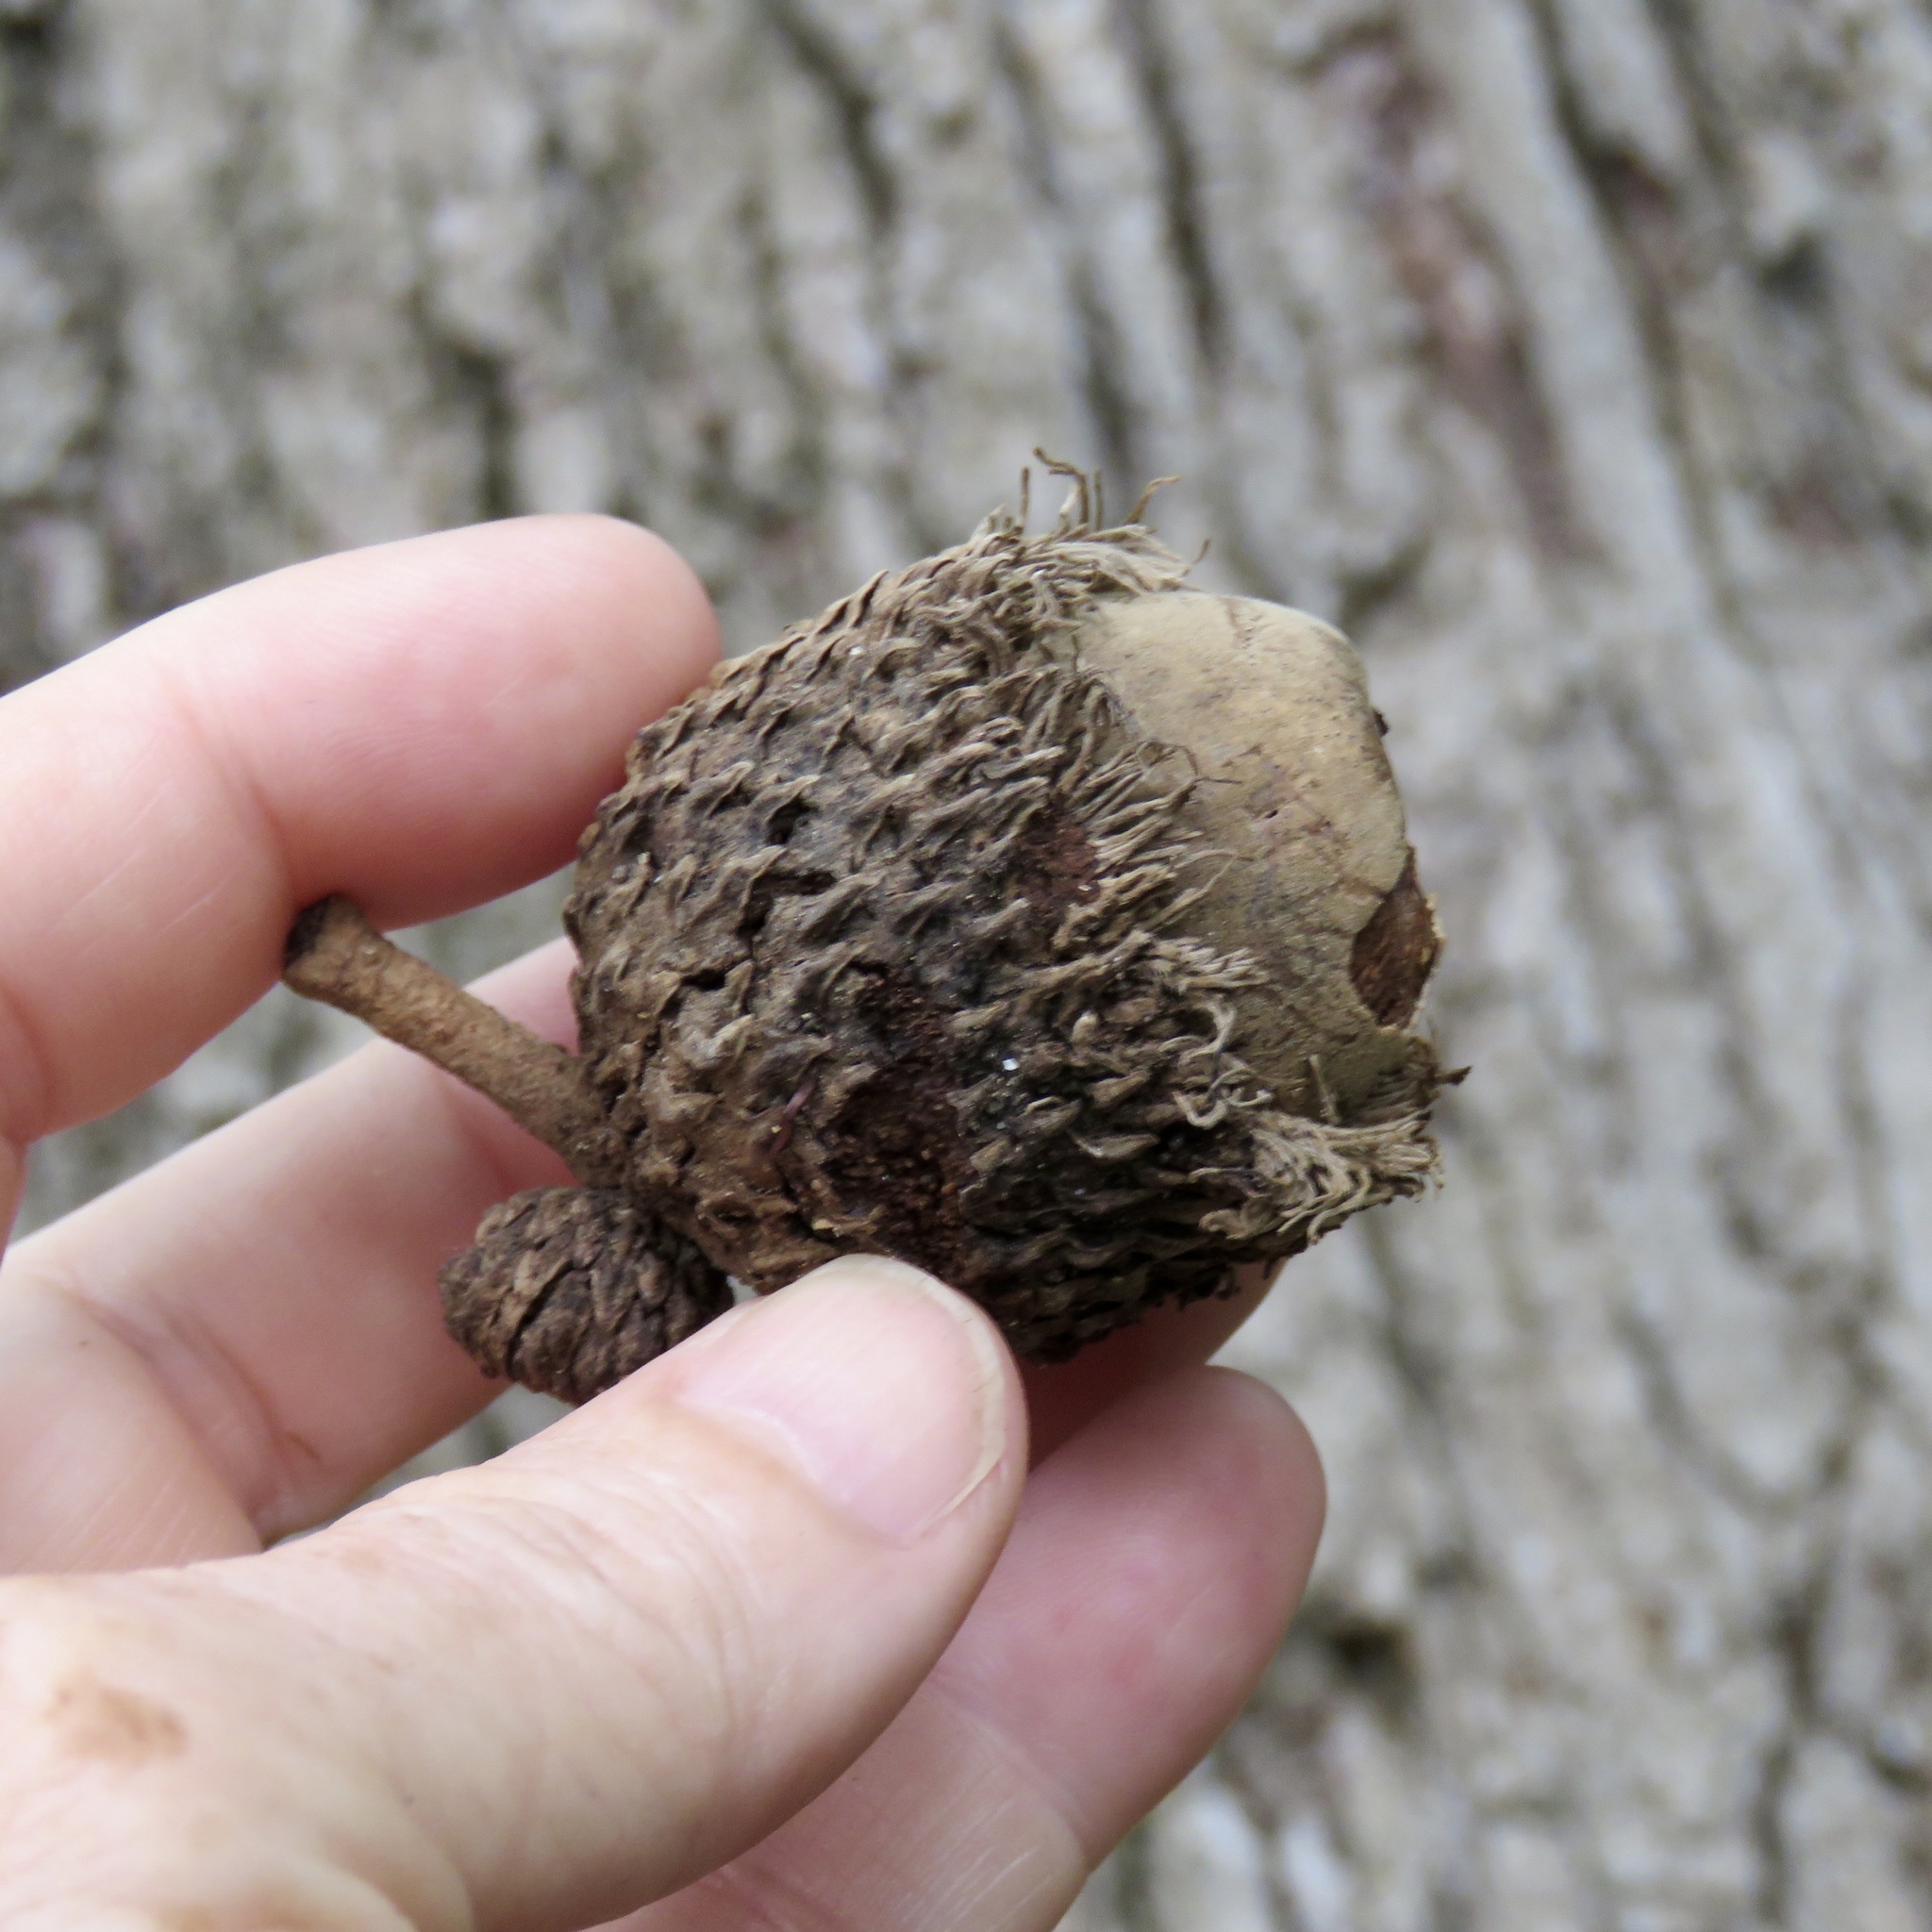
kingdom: Plantae
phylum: Tracheophyta
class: Magnoliopsida
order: Fagales
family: Fagaceae
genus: Quercus
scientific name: Quercus macrocarpa
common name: Bur oak
